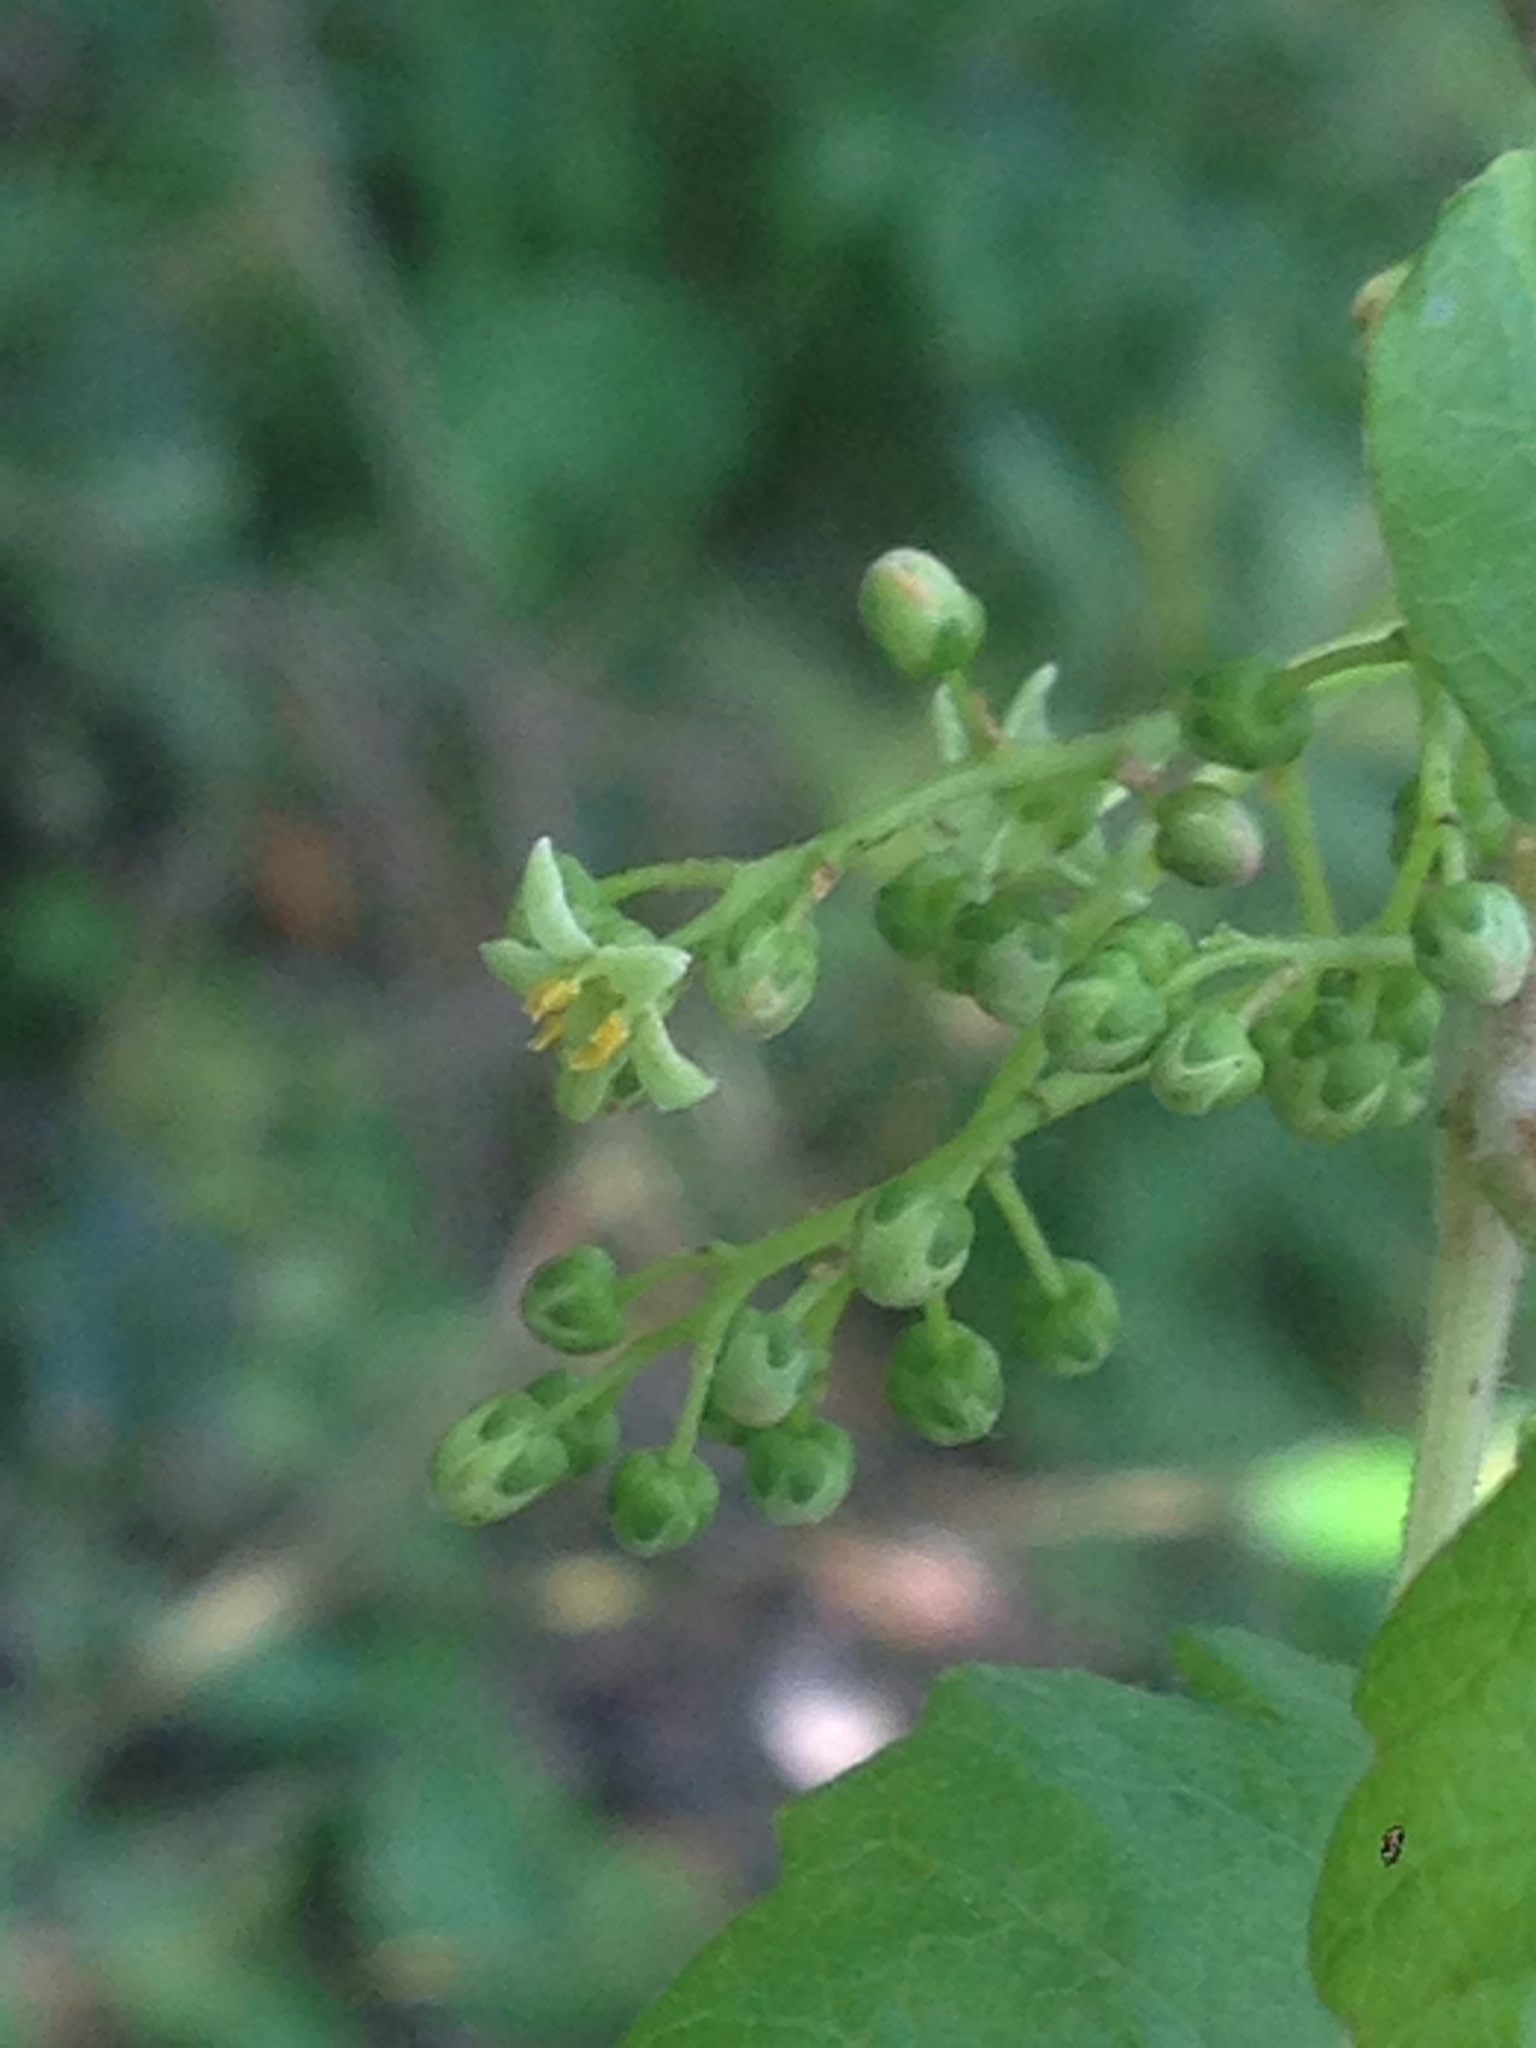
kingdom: Plantae
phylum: Tracheophyta
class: Magnoliopsida
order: Sapindales
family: Anacardiaceae
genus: Toxicodendron
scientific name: Toxicodendron diversilobum
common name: Pacific poison-oak
